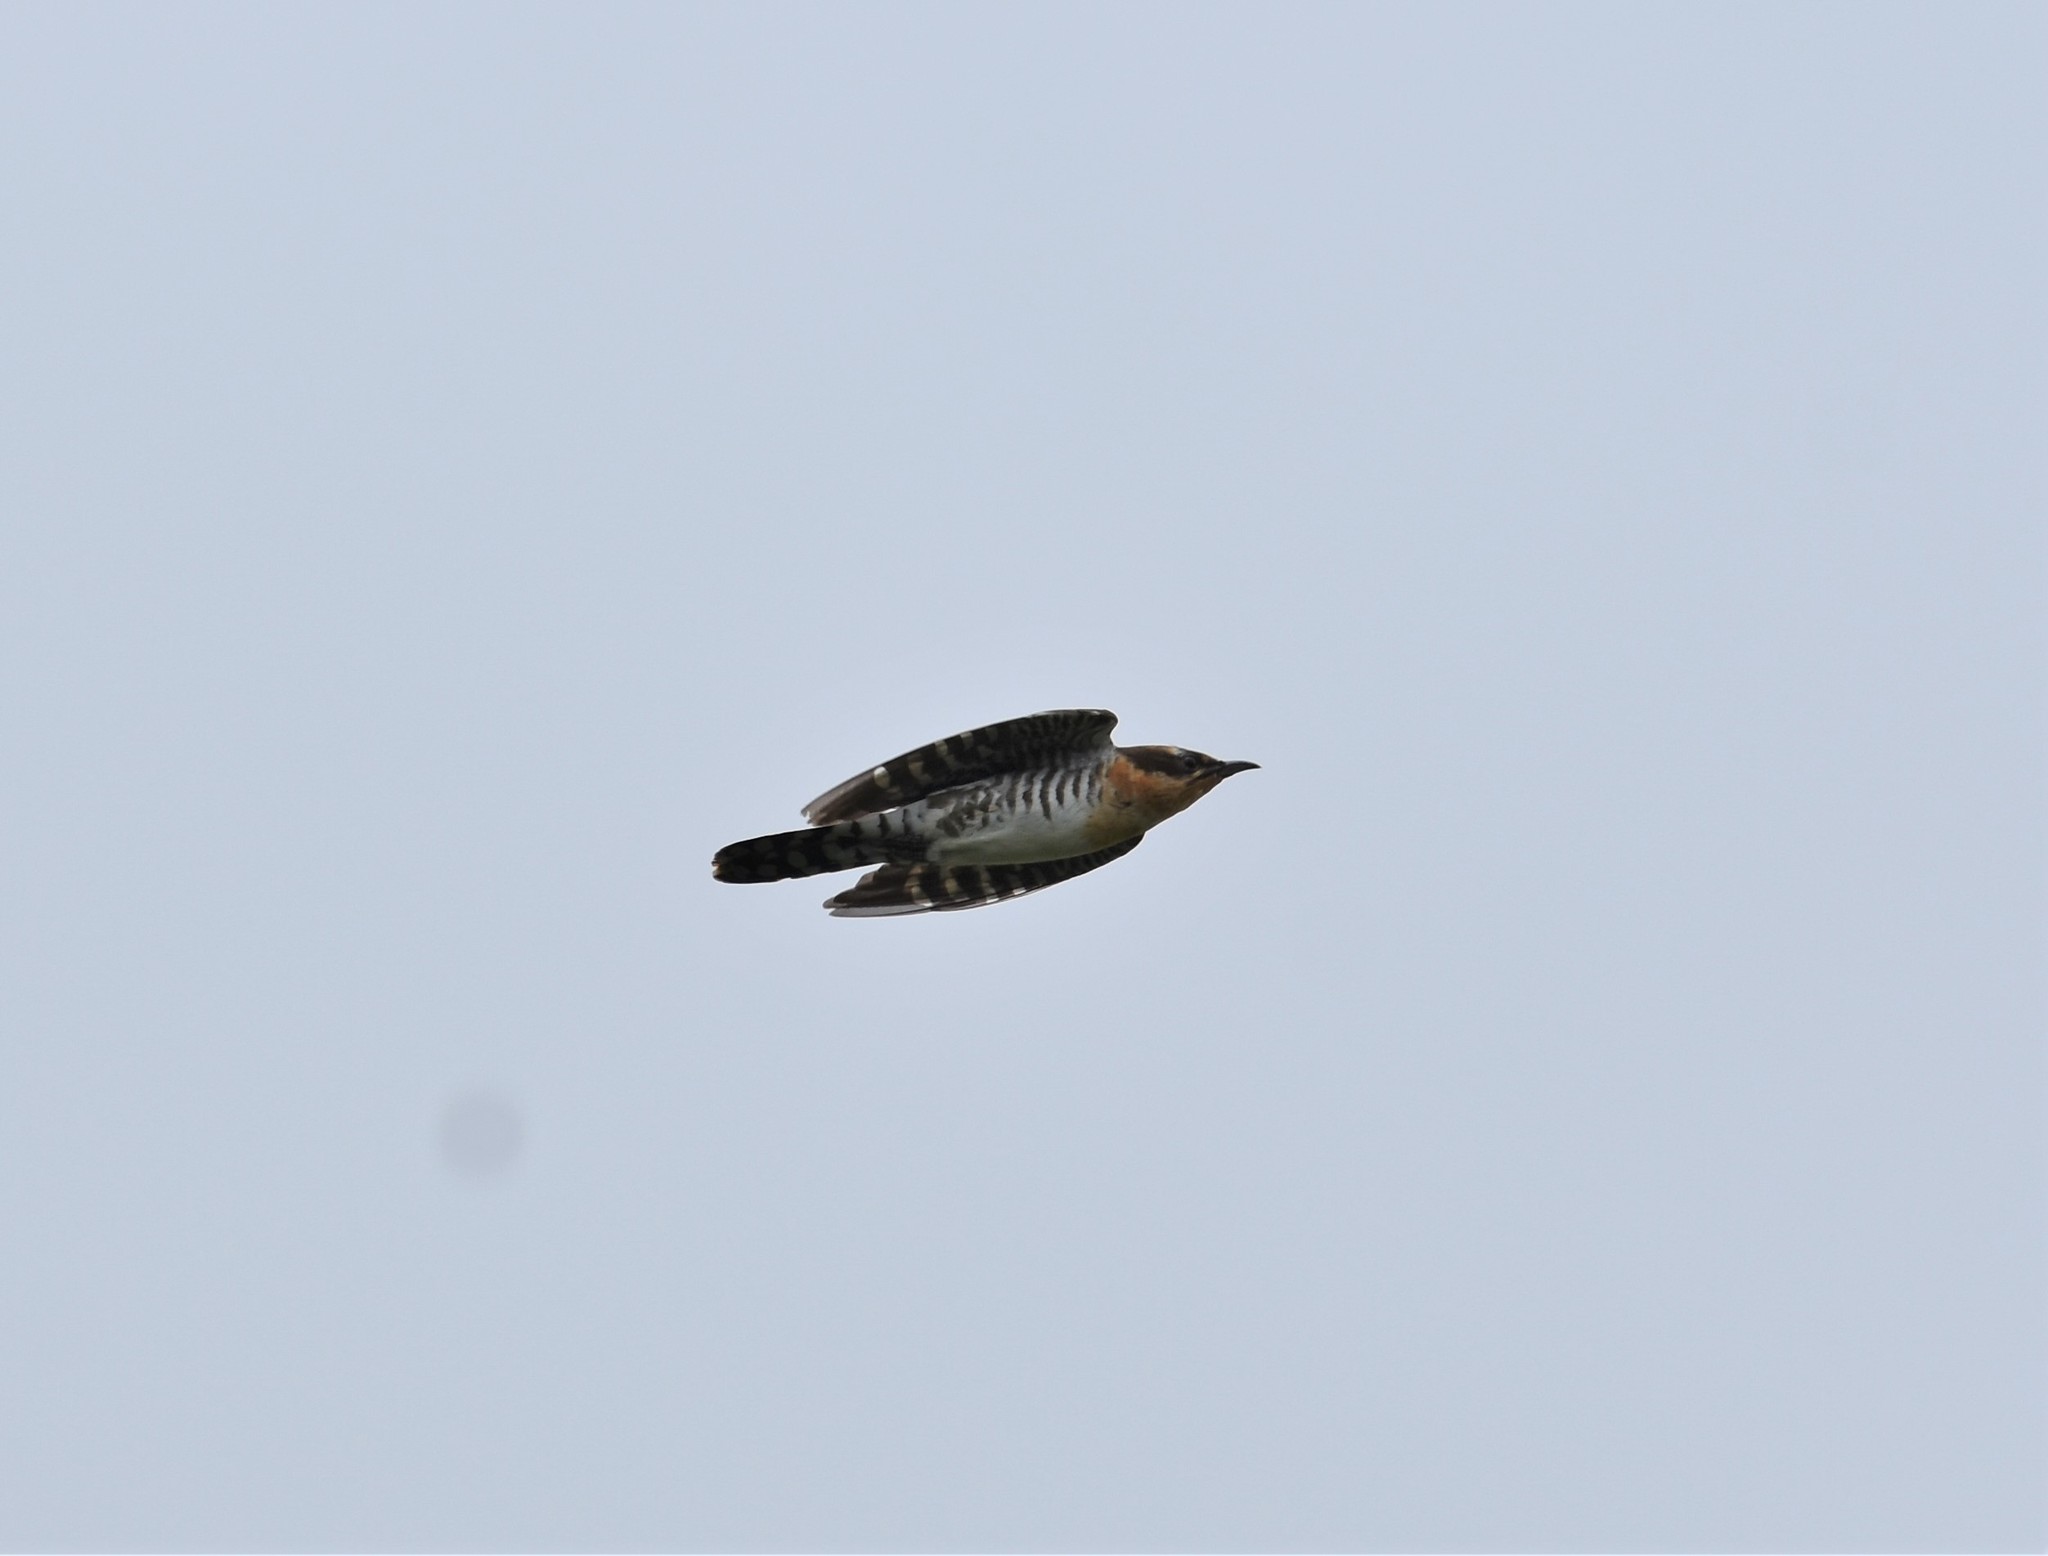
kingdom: Animalia
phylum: Chordata
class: Aves
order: Cuculiformes
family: Cuculidae
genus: Chrysococcyx
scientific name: Chrysococcyx caprius
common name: Diederik cuckoo
